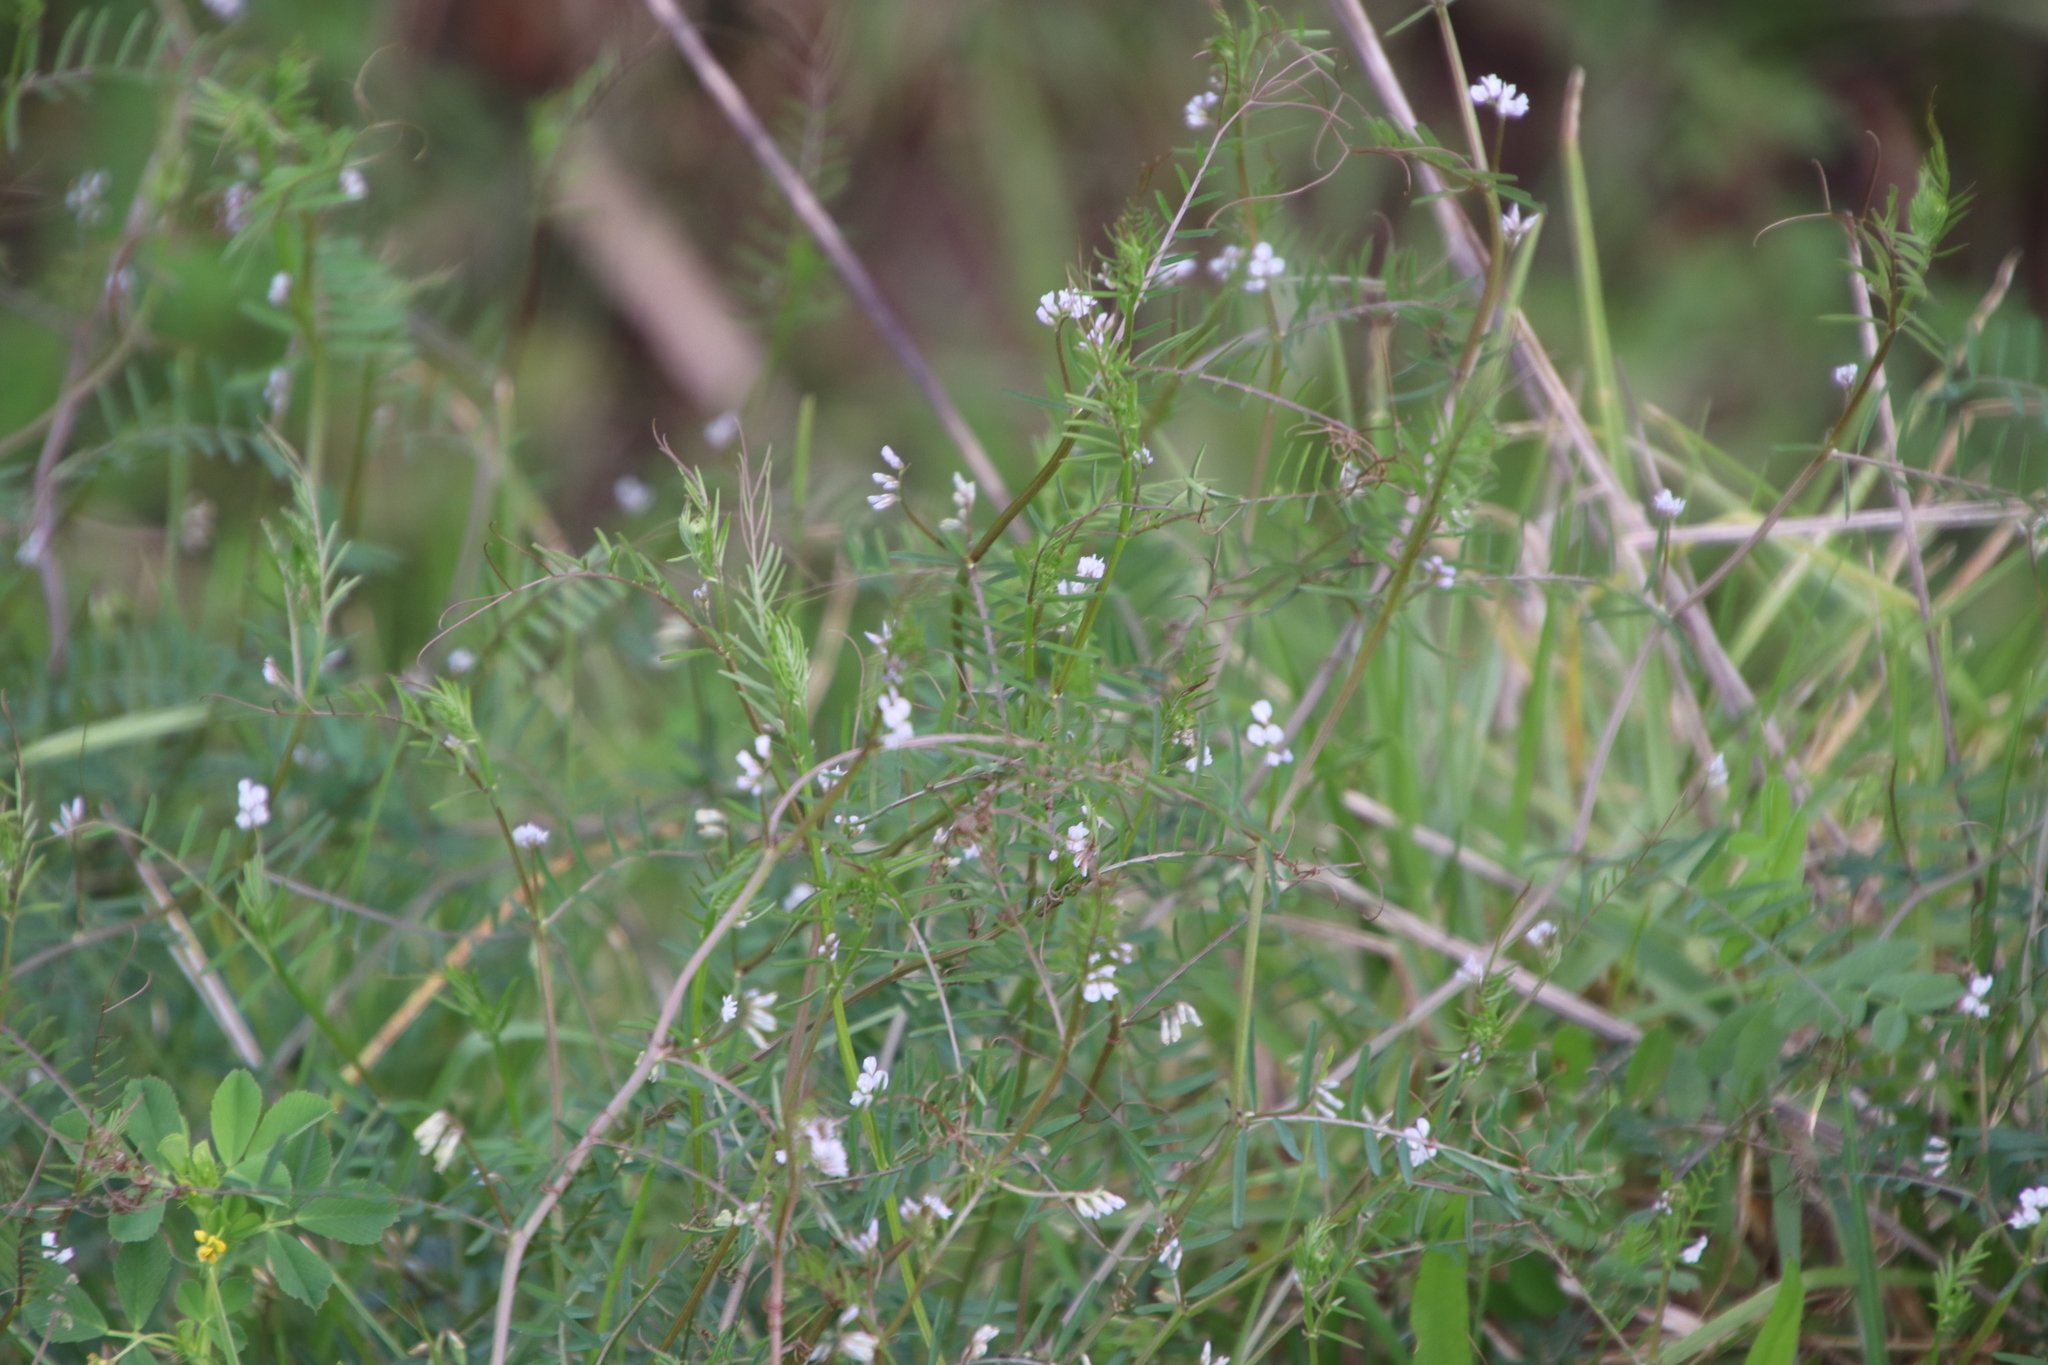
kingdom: Plantae
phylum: Tracheophyta
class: Magnoliopsida
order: Fabales
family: Fabaceae
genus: Vicia
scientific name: Vicia hirsuta
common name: Tiny vetch
